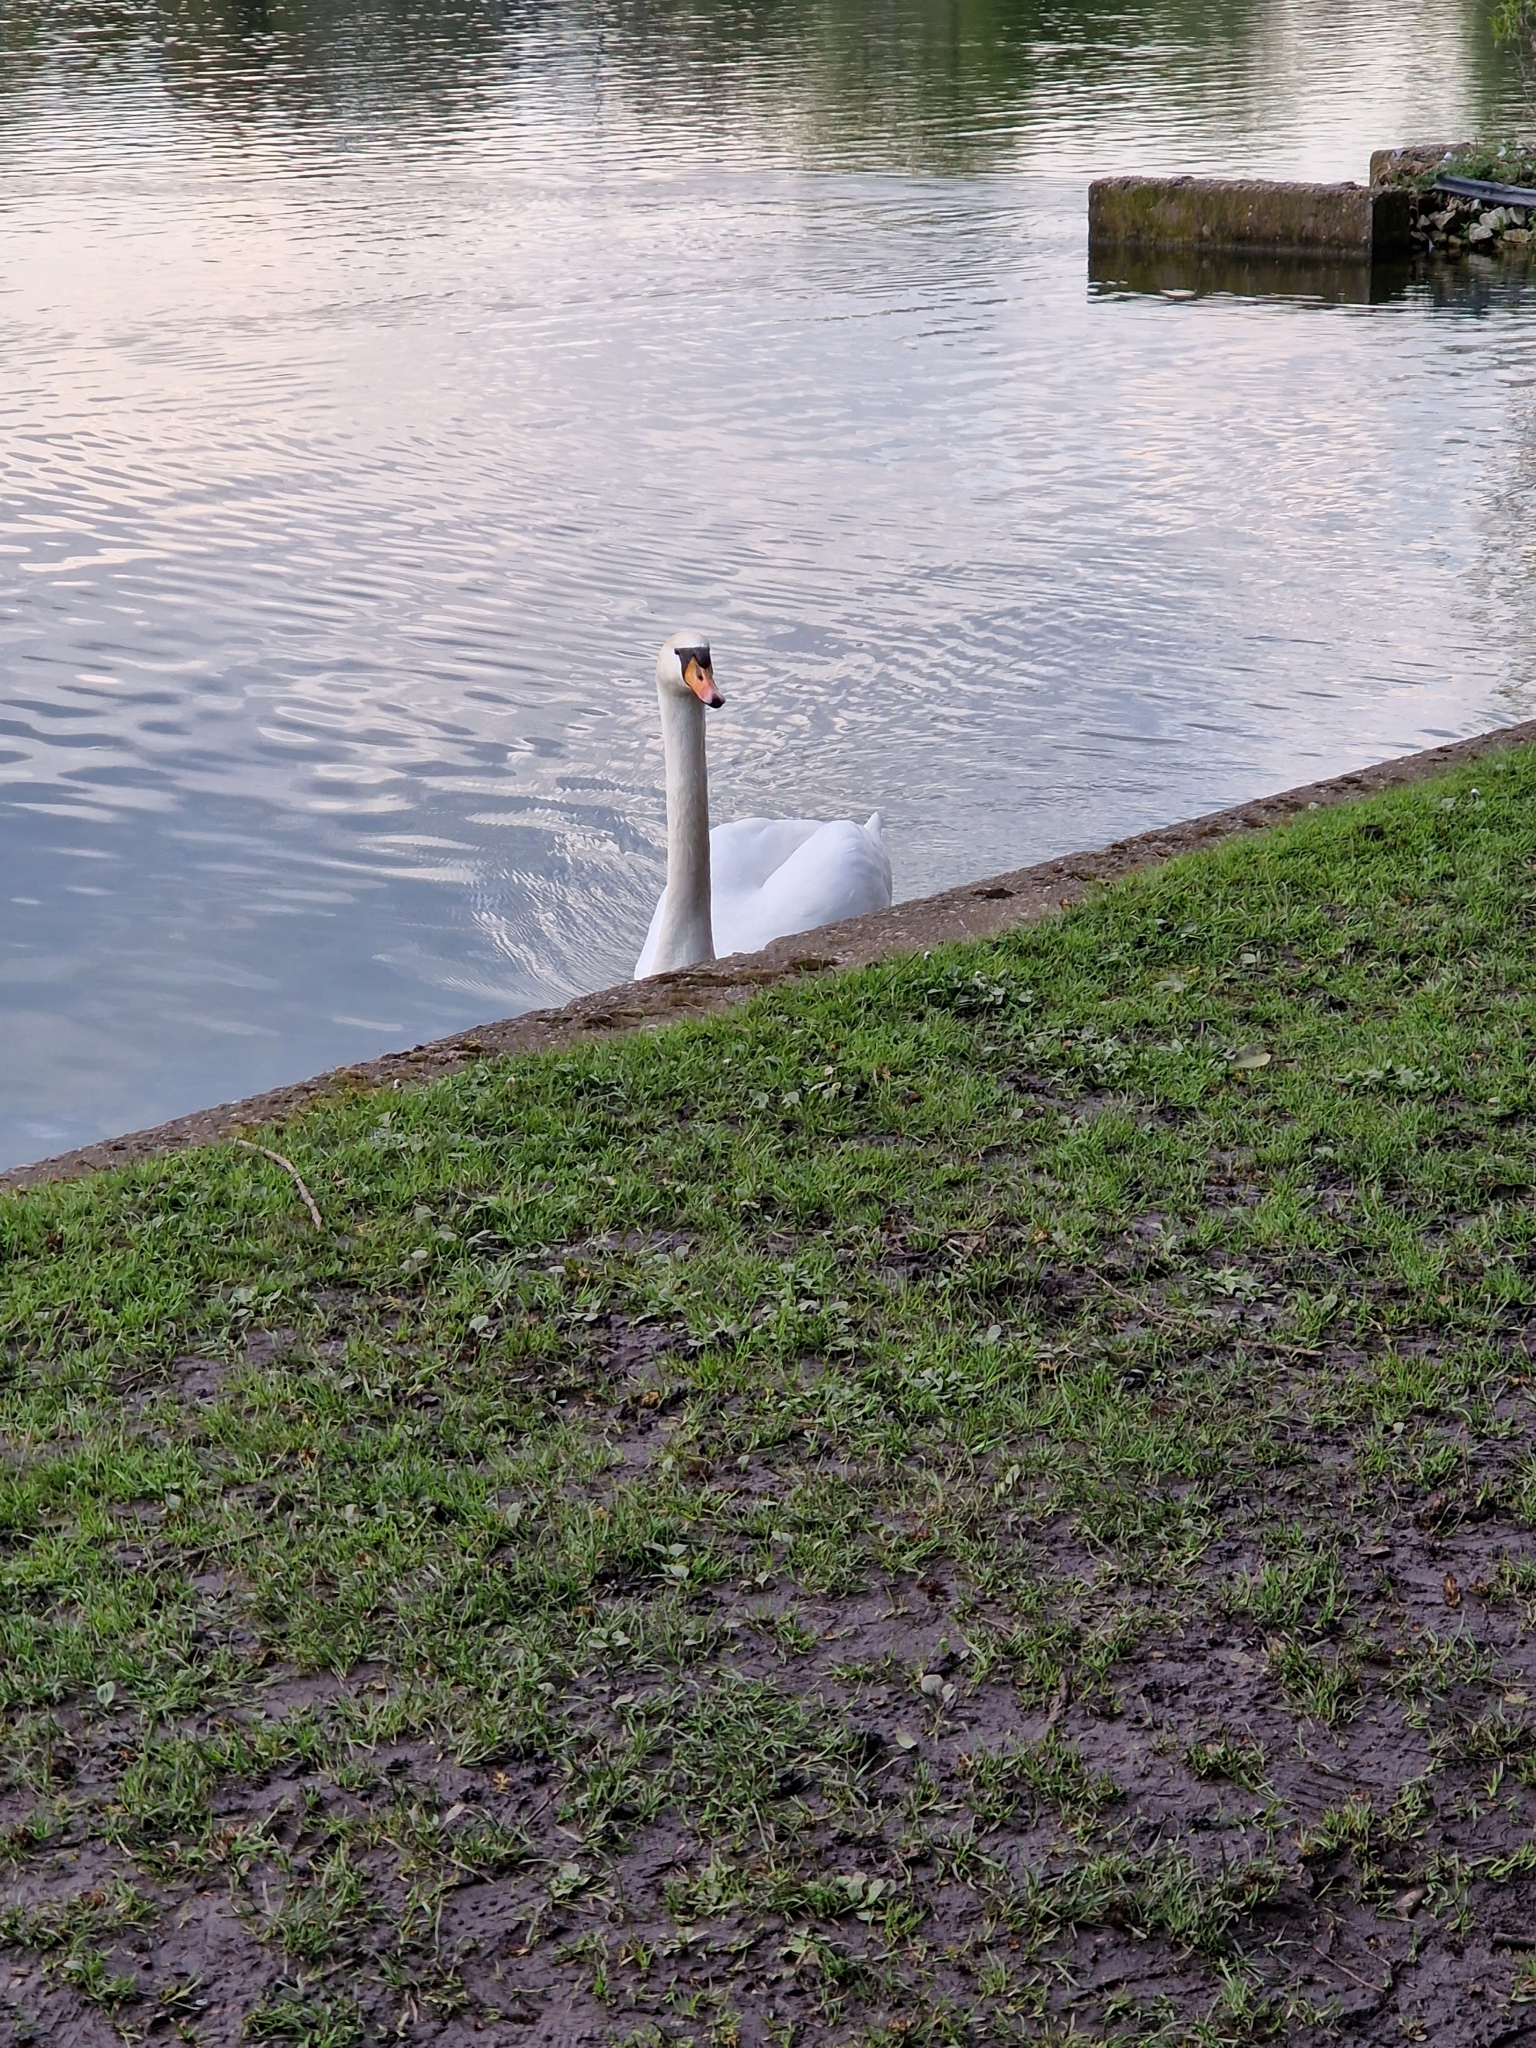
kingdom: Animalia
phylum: Chordata
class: Aves
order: Anseriformes
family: Anatidae
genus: Cygnus
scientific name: Cygnus olor
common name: Mute swan
